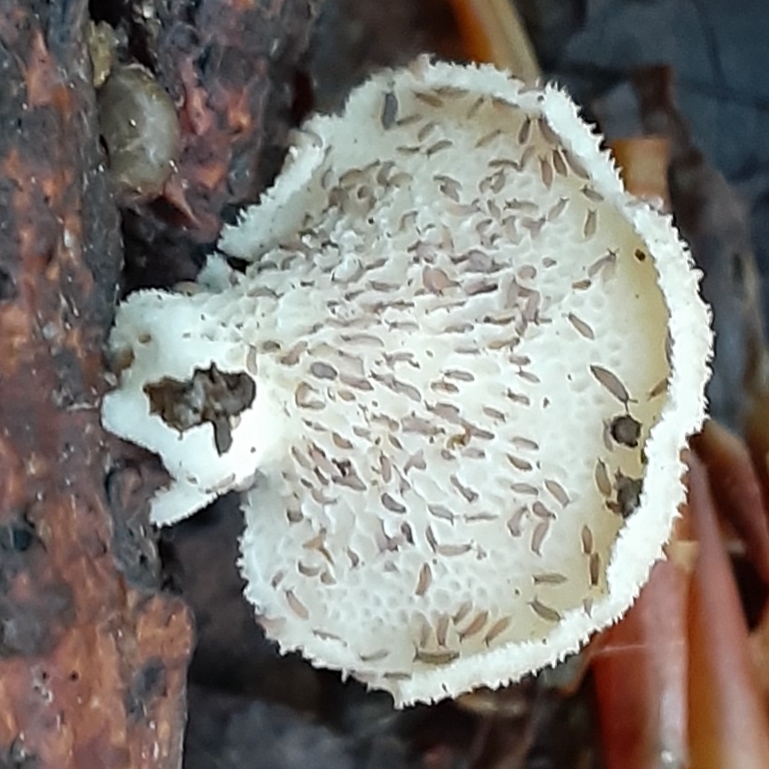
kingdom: Fungi
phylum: Basidiomycota
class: Agaricomycetes
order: Polyporales
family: Polyporaceae
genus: Neofavolus
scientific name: Neofavolus alveolaris
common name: Hexagonal-pored polypore
